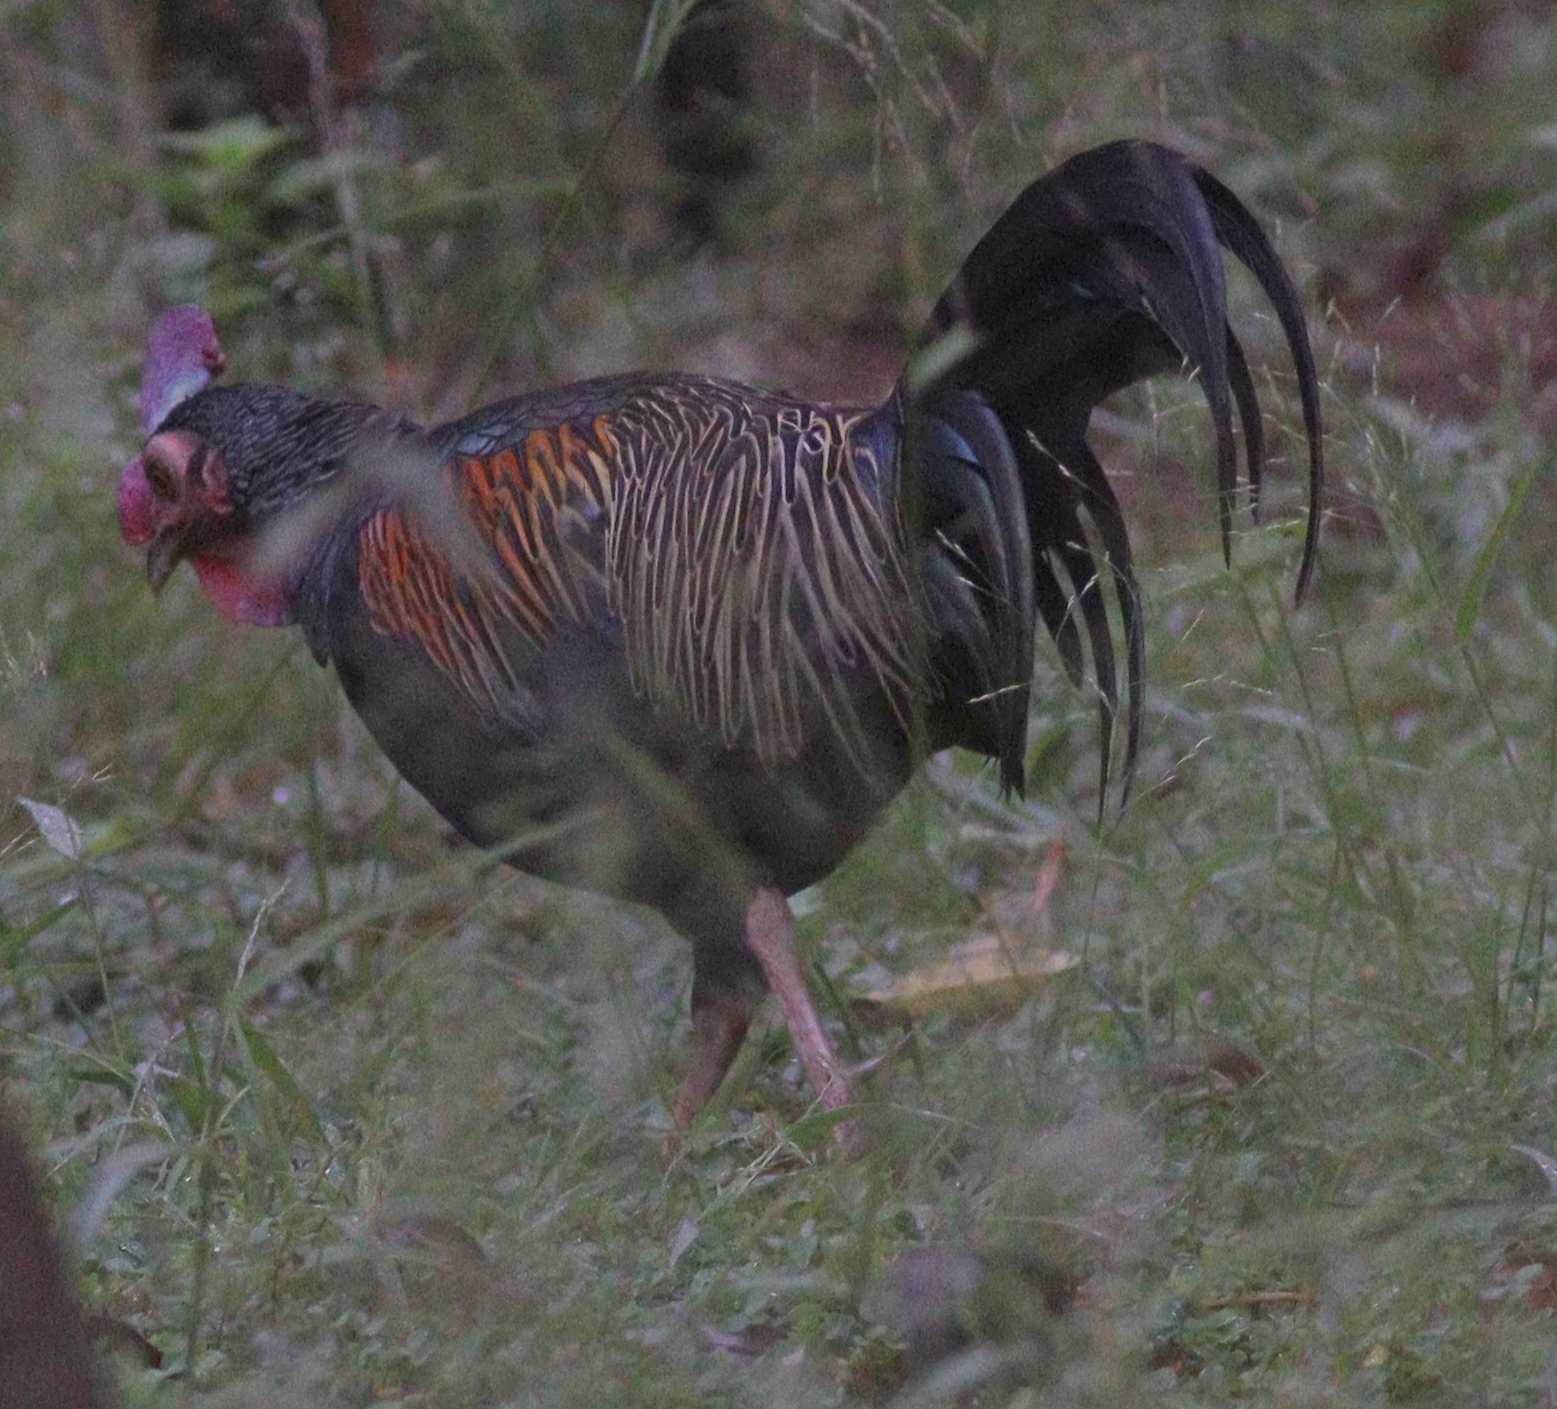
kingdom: Animalia
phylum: Chordata
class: Aves
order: Galliformes
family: Phasianidae
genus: Gallus
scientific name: Gallus varius
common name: Green junglefowl
